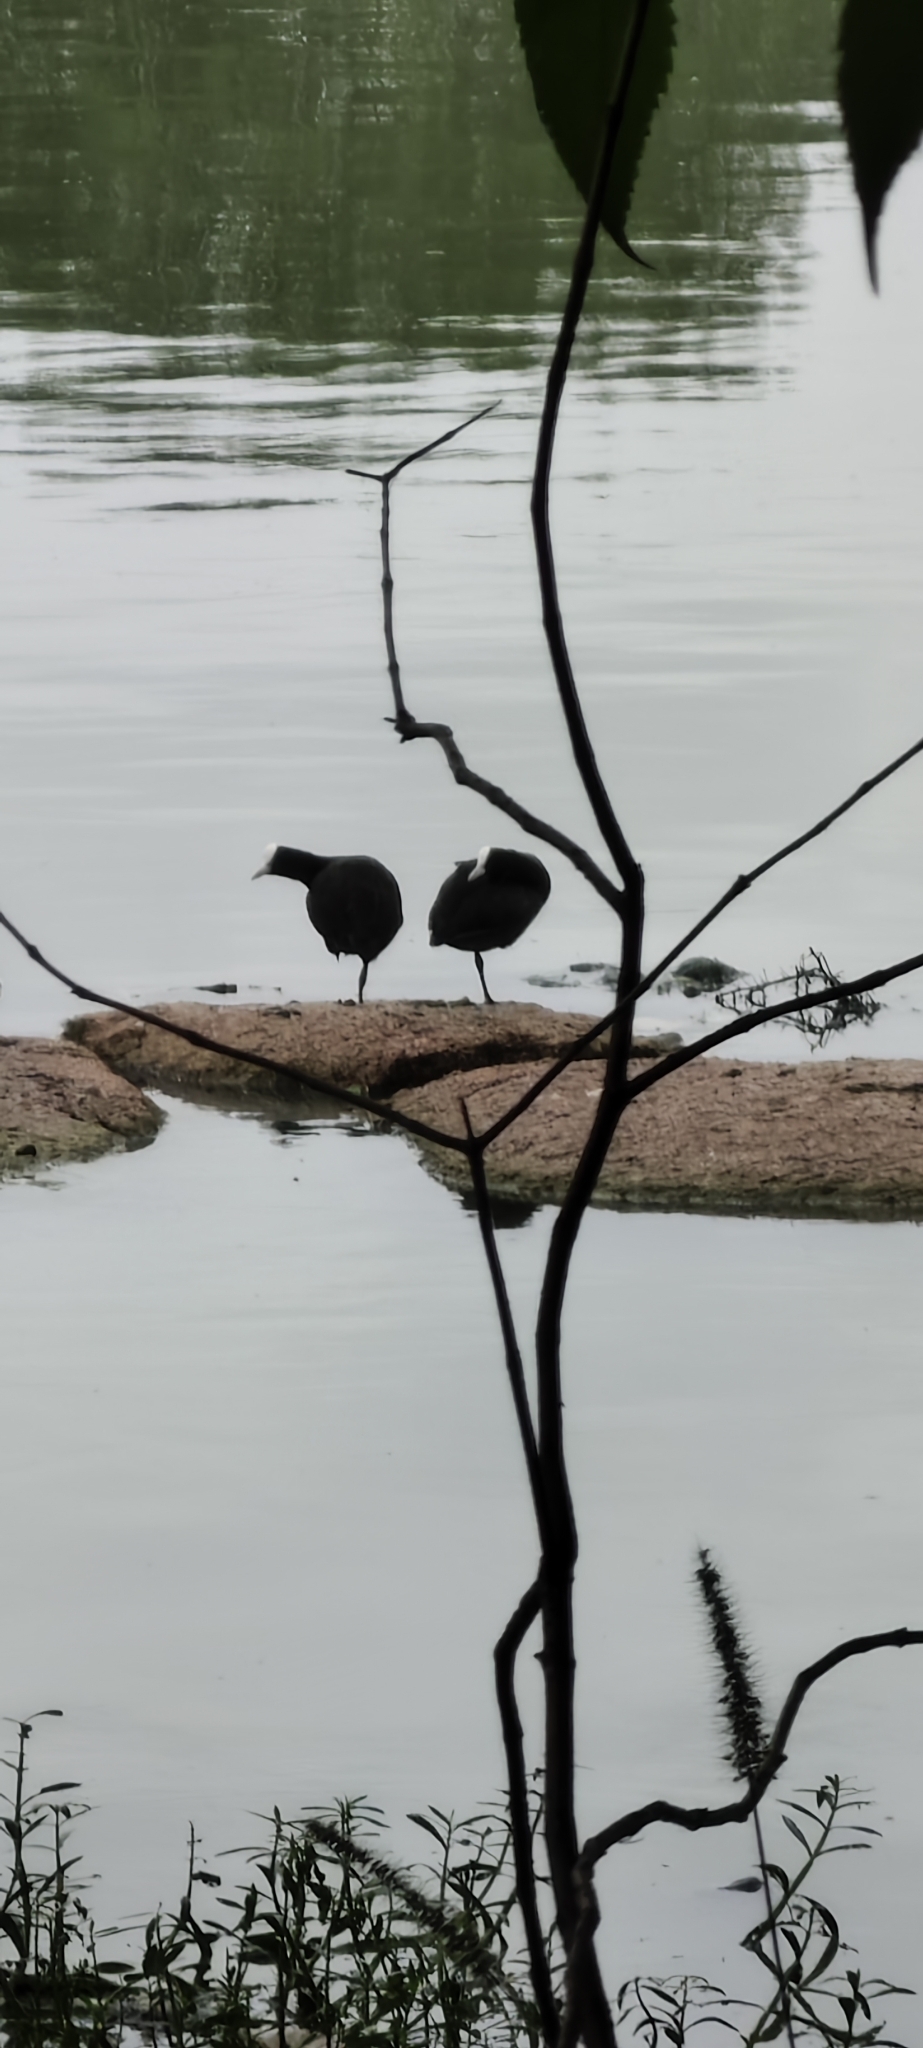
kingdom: Animalia
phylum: Chordata
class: Aves
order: Gruiformes
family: Rallidae
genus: Fulica
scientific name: Fulica atra
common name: Eurasian coot
